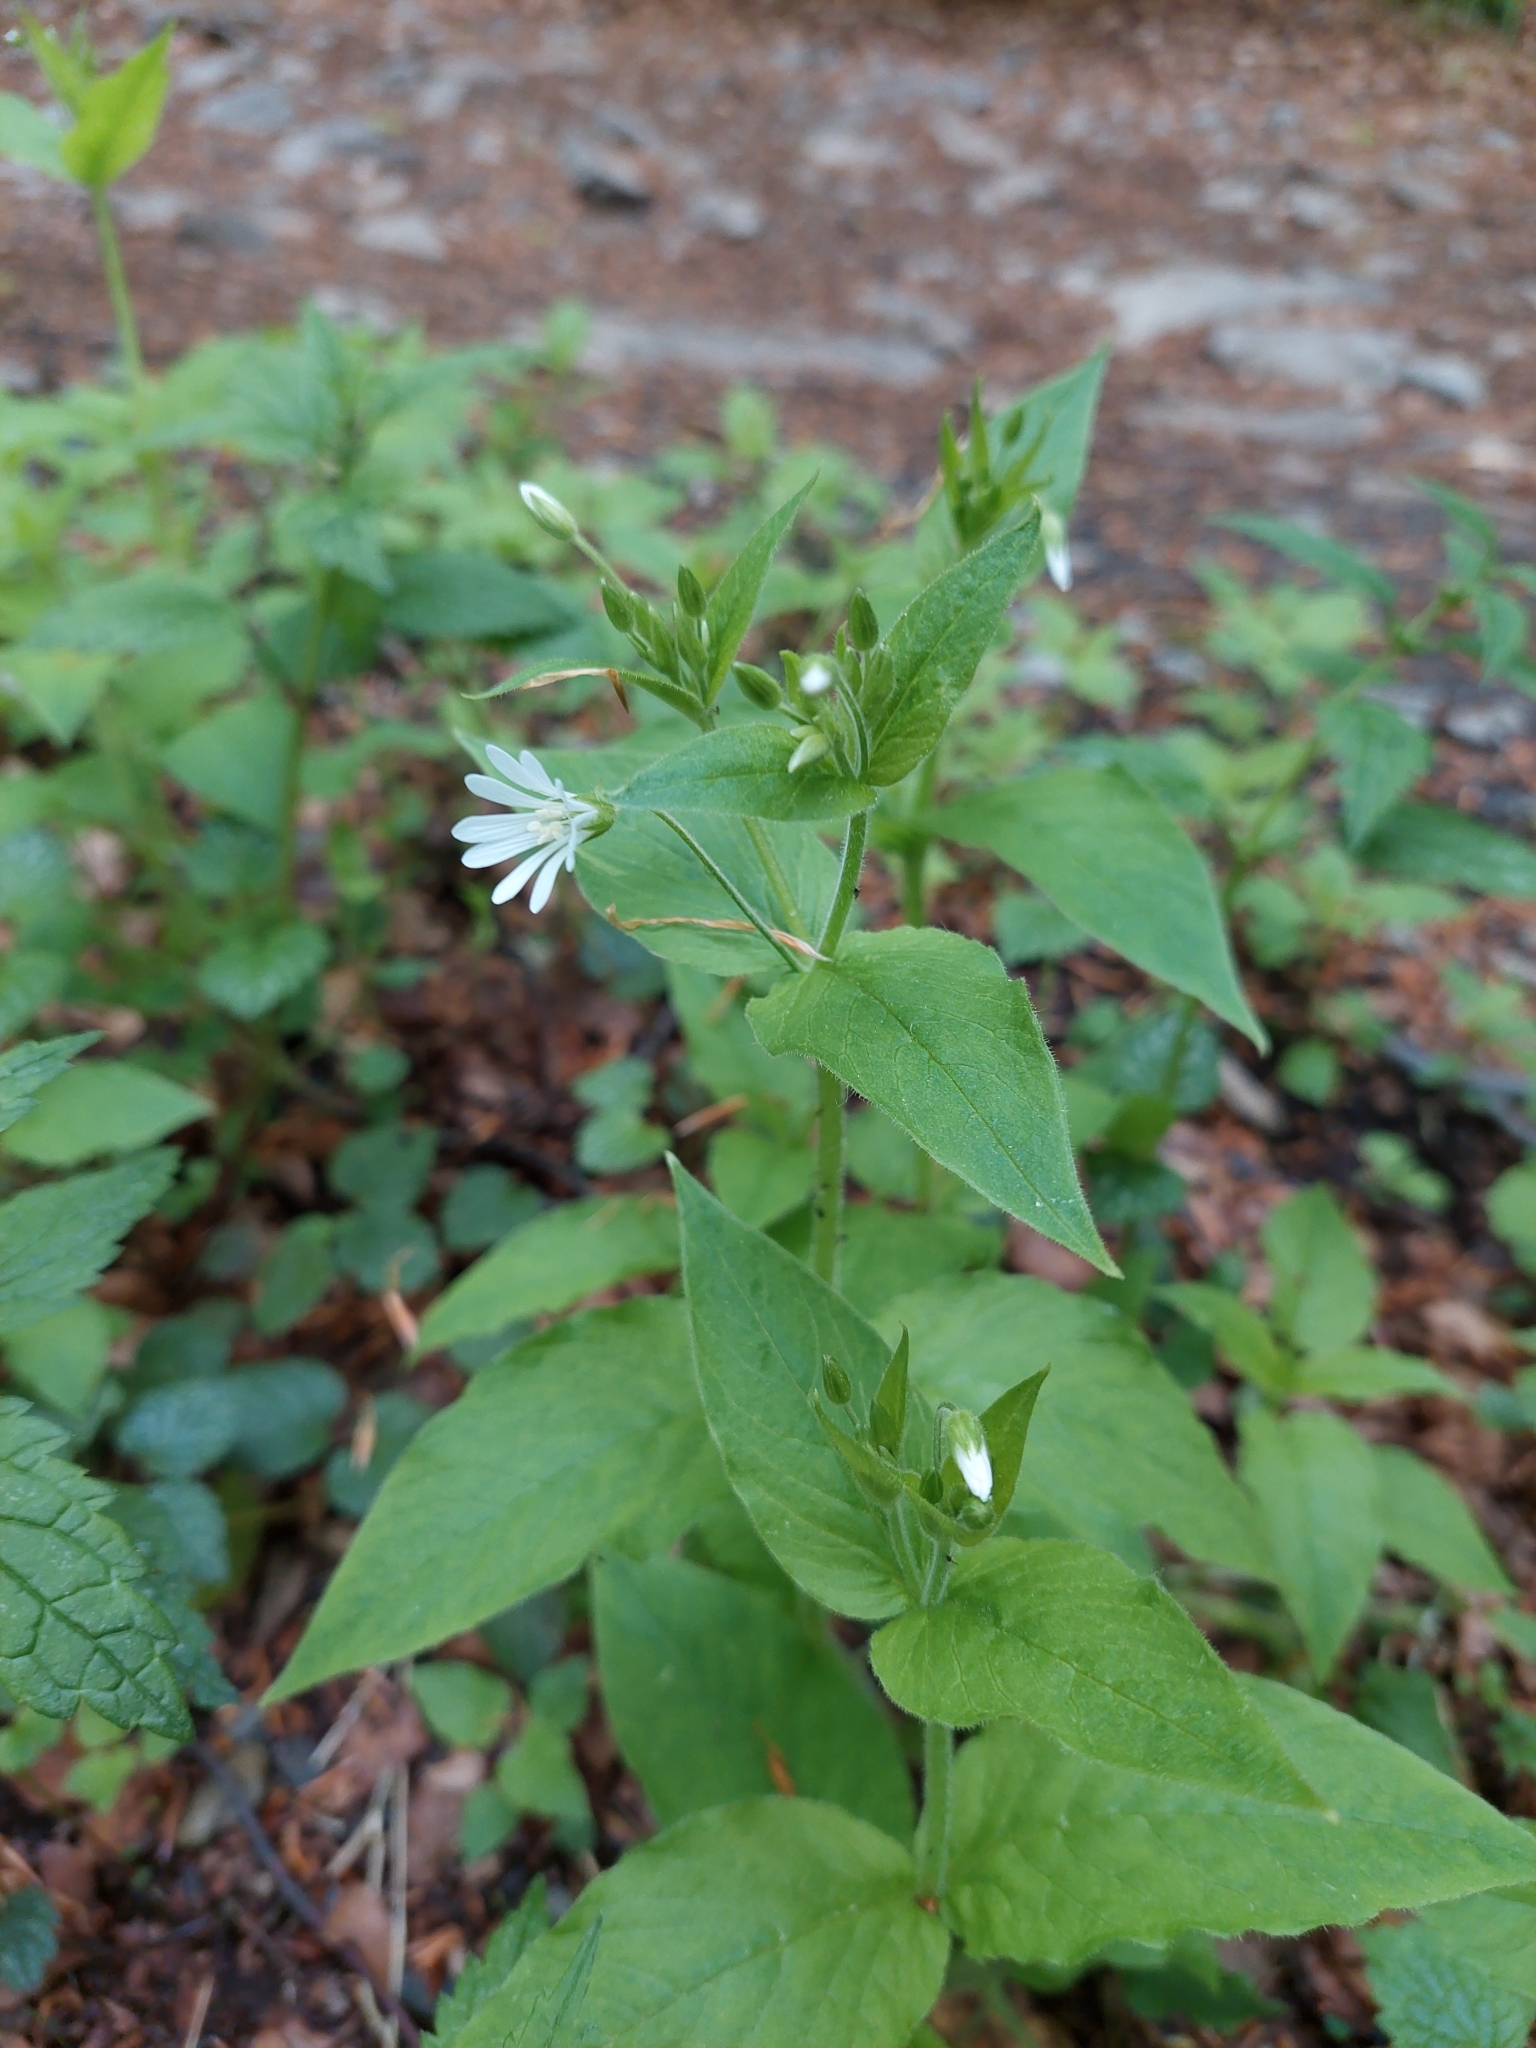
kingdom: Plantae
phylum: Tracheophyta
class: Magnoliopsida
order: Caryophyllales
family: Caryophyllaceae
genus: Stellaria
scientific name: Stellaria nemorum
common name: Wood stitchwort
